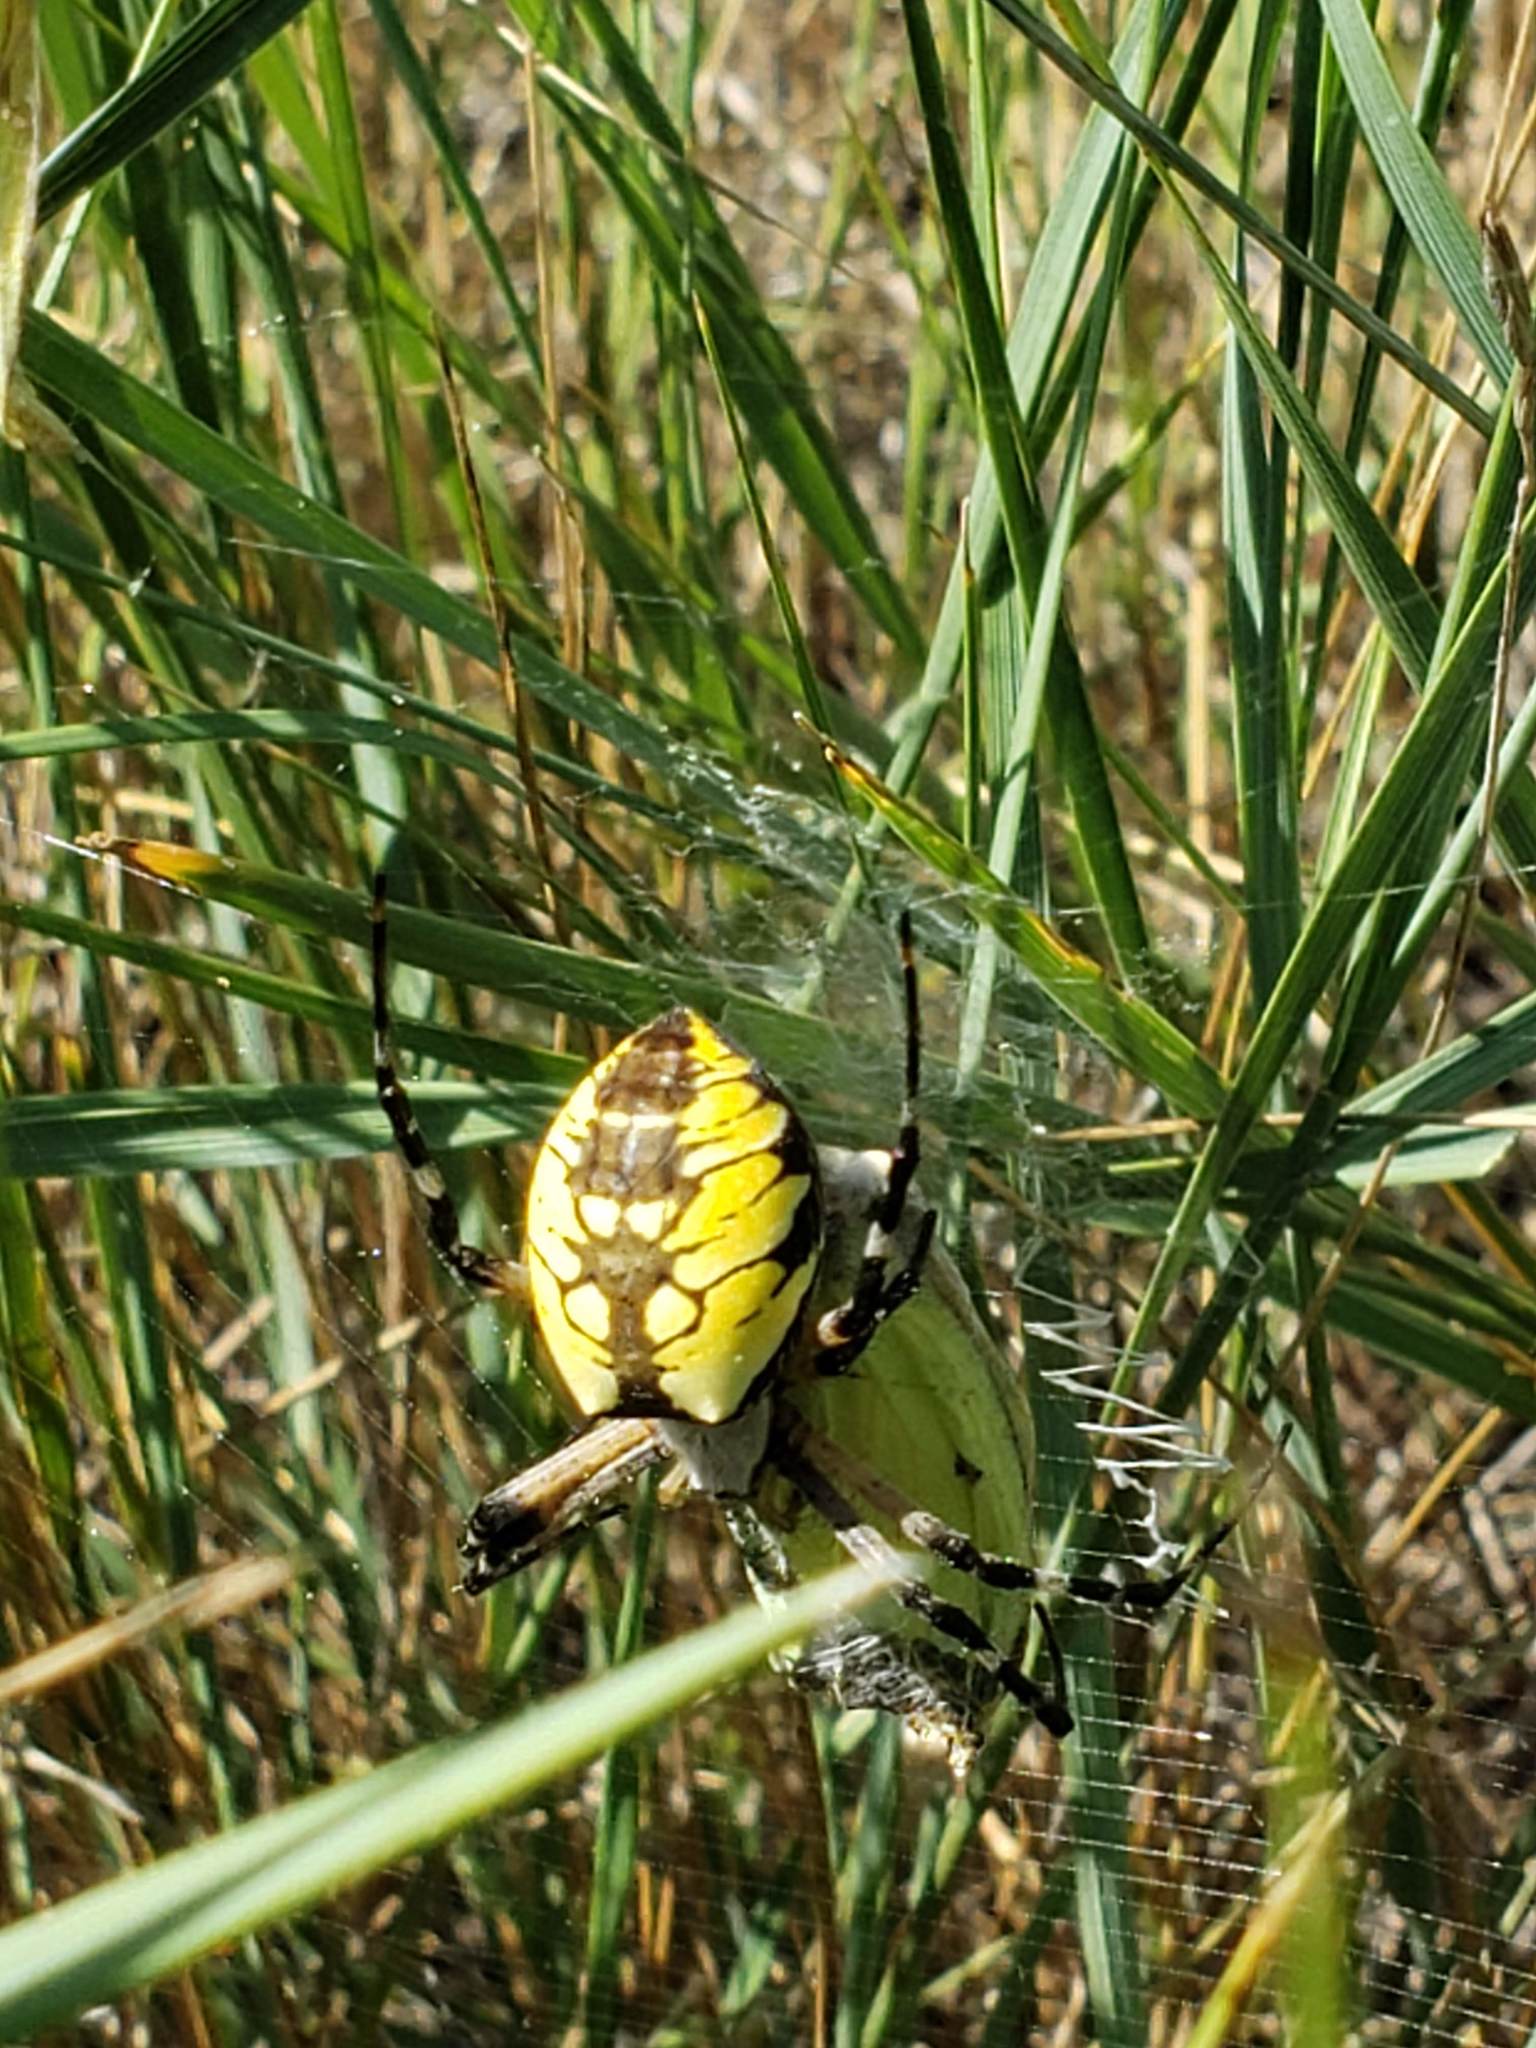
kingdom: Animalia
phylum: Arthropoda
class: Arachnida
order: Araneae
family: Araneidae
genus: Argiope
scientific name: Argiope aurantia
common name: Orb weavers
